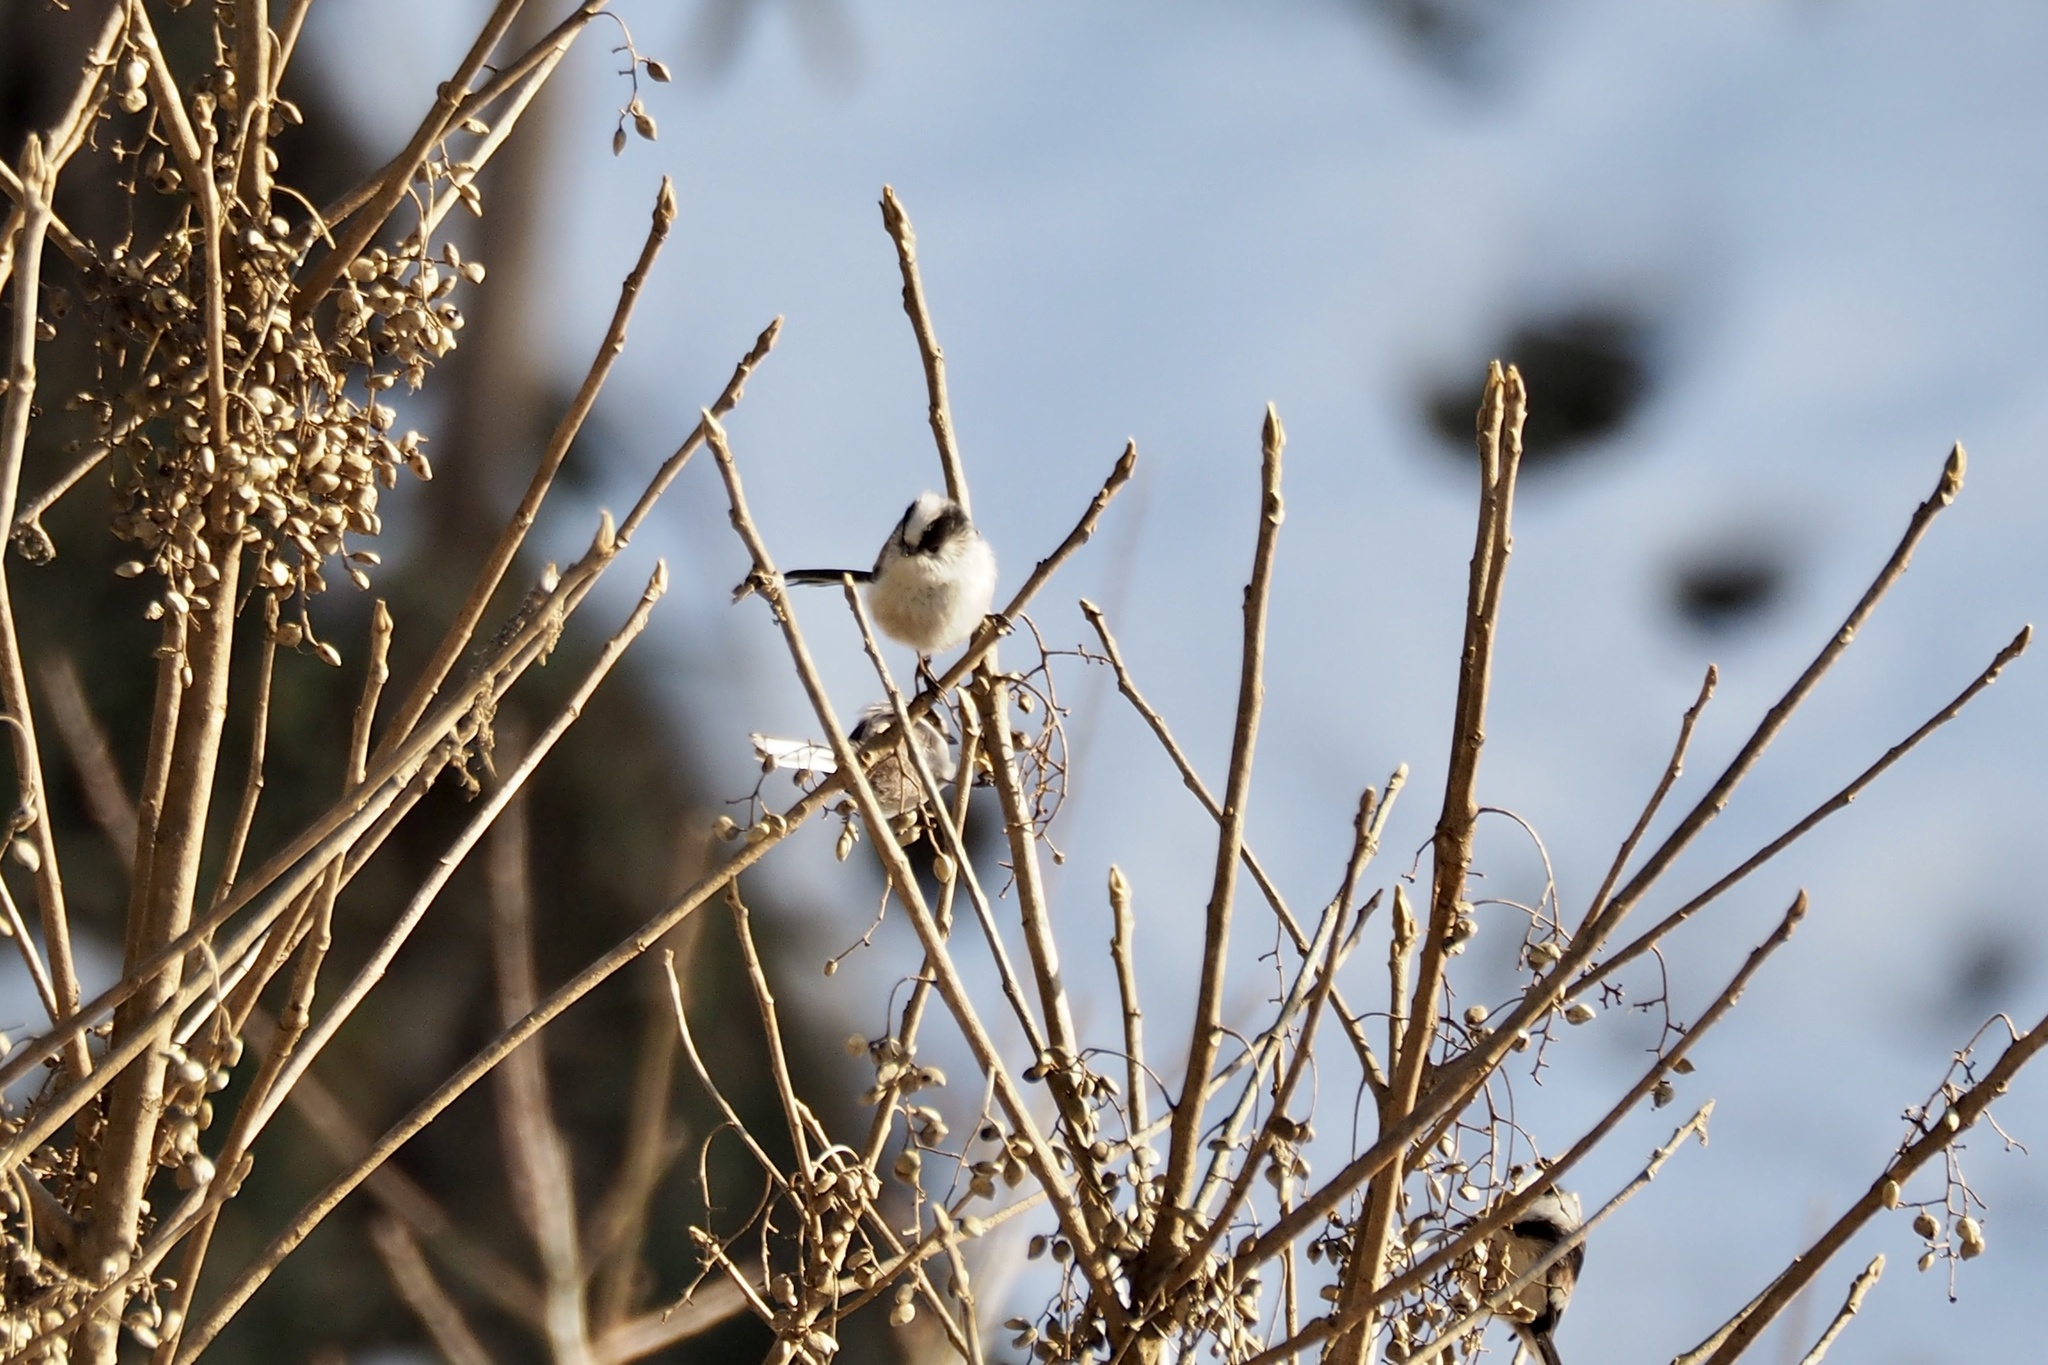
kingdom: Animalia
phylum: Chordata
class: Aves
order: Passeriformes
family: Aegithalidae
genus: Aegithalos
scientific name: Aegithalos caudatus
